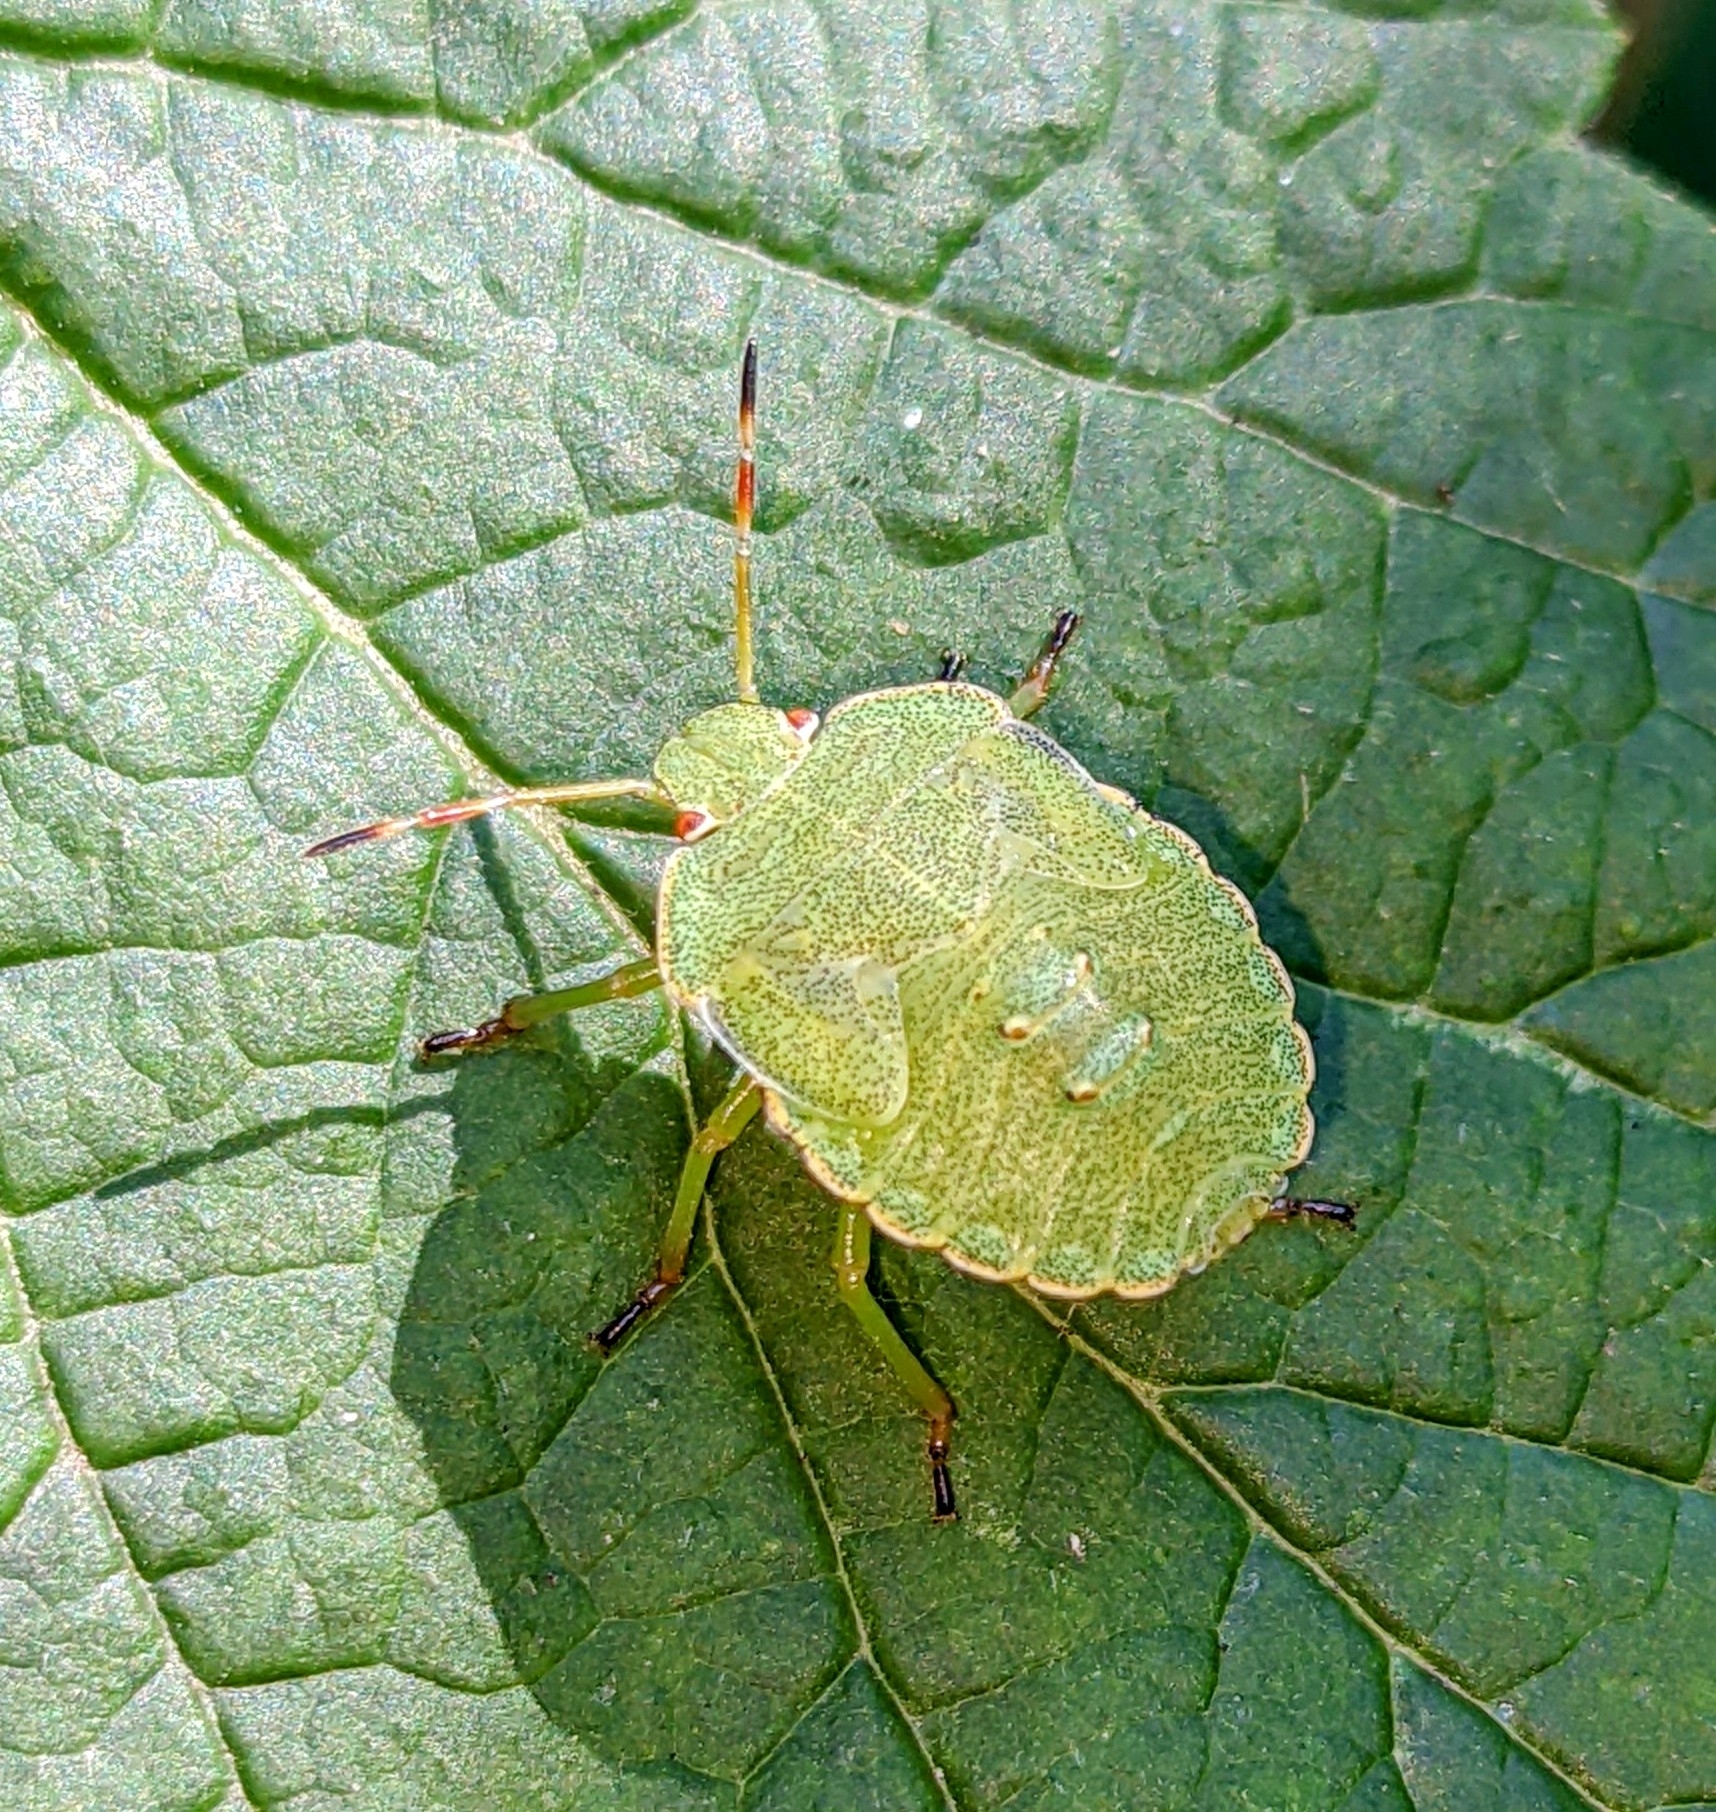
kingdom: Animalia
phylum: Arthropoda
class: Insecta
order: Hemiptera
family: Pentatomidae
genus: Palomena
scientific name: Palomena prasina
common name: Green shieldbug
